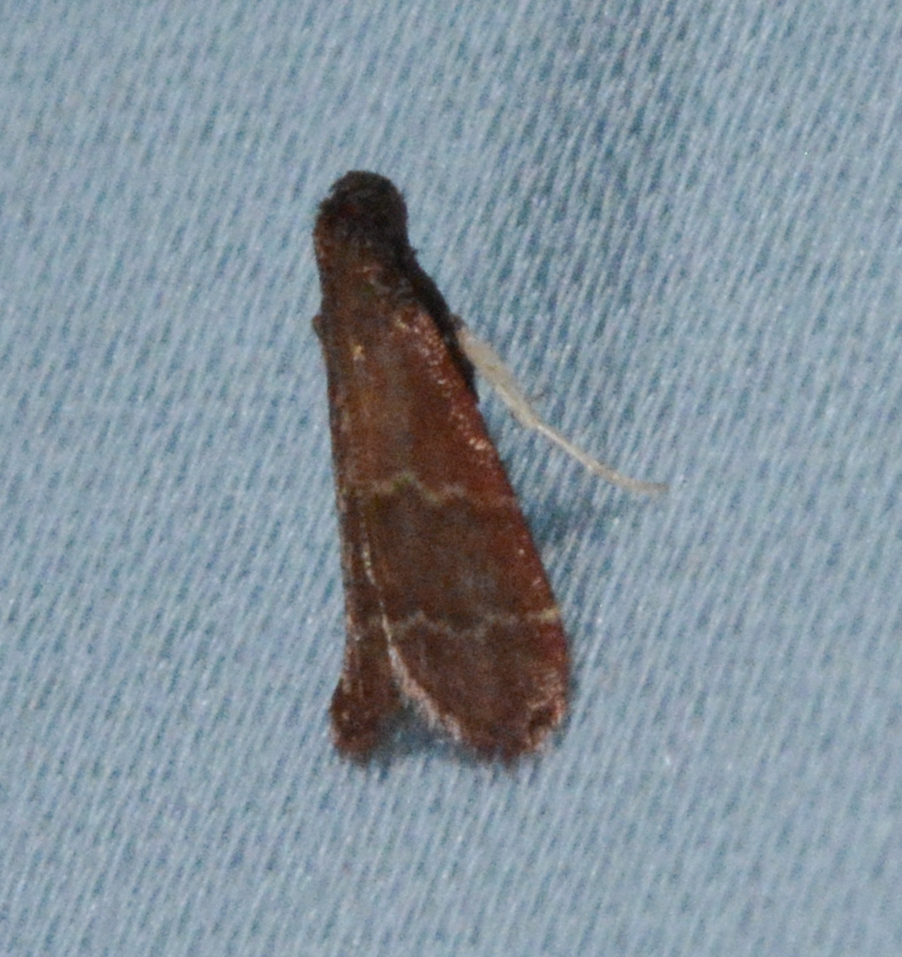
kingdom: Animalia
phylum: Arthropoda
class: Insecta
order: Lepidoptera
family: Pyralidae
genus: Arta
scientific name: Arta
